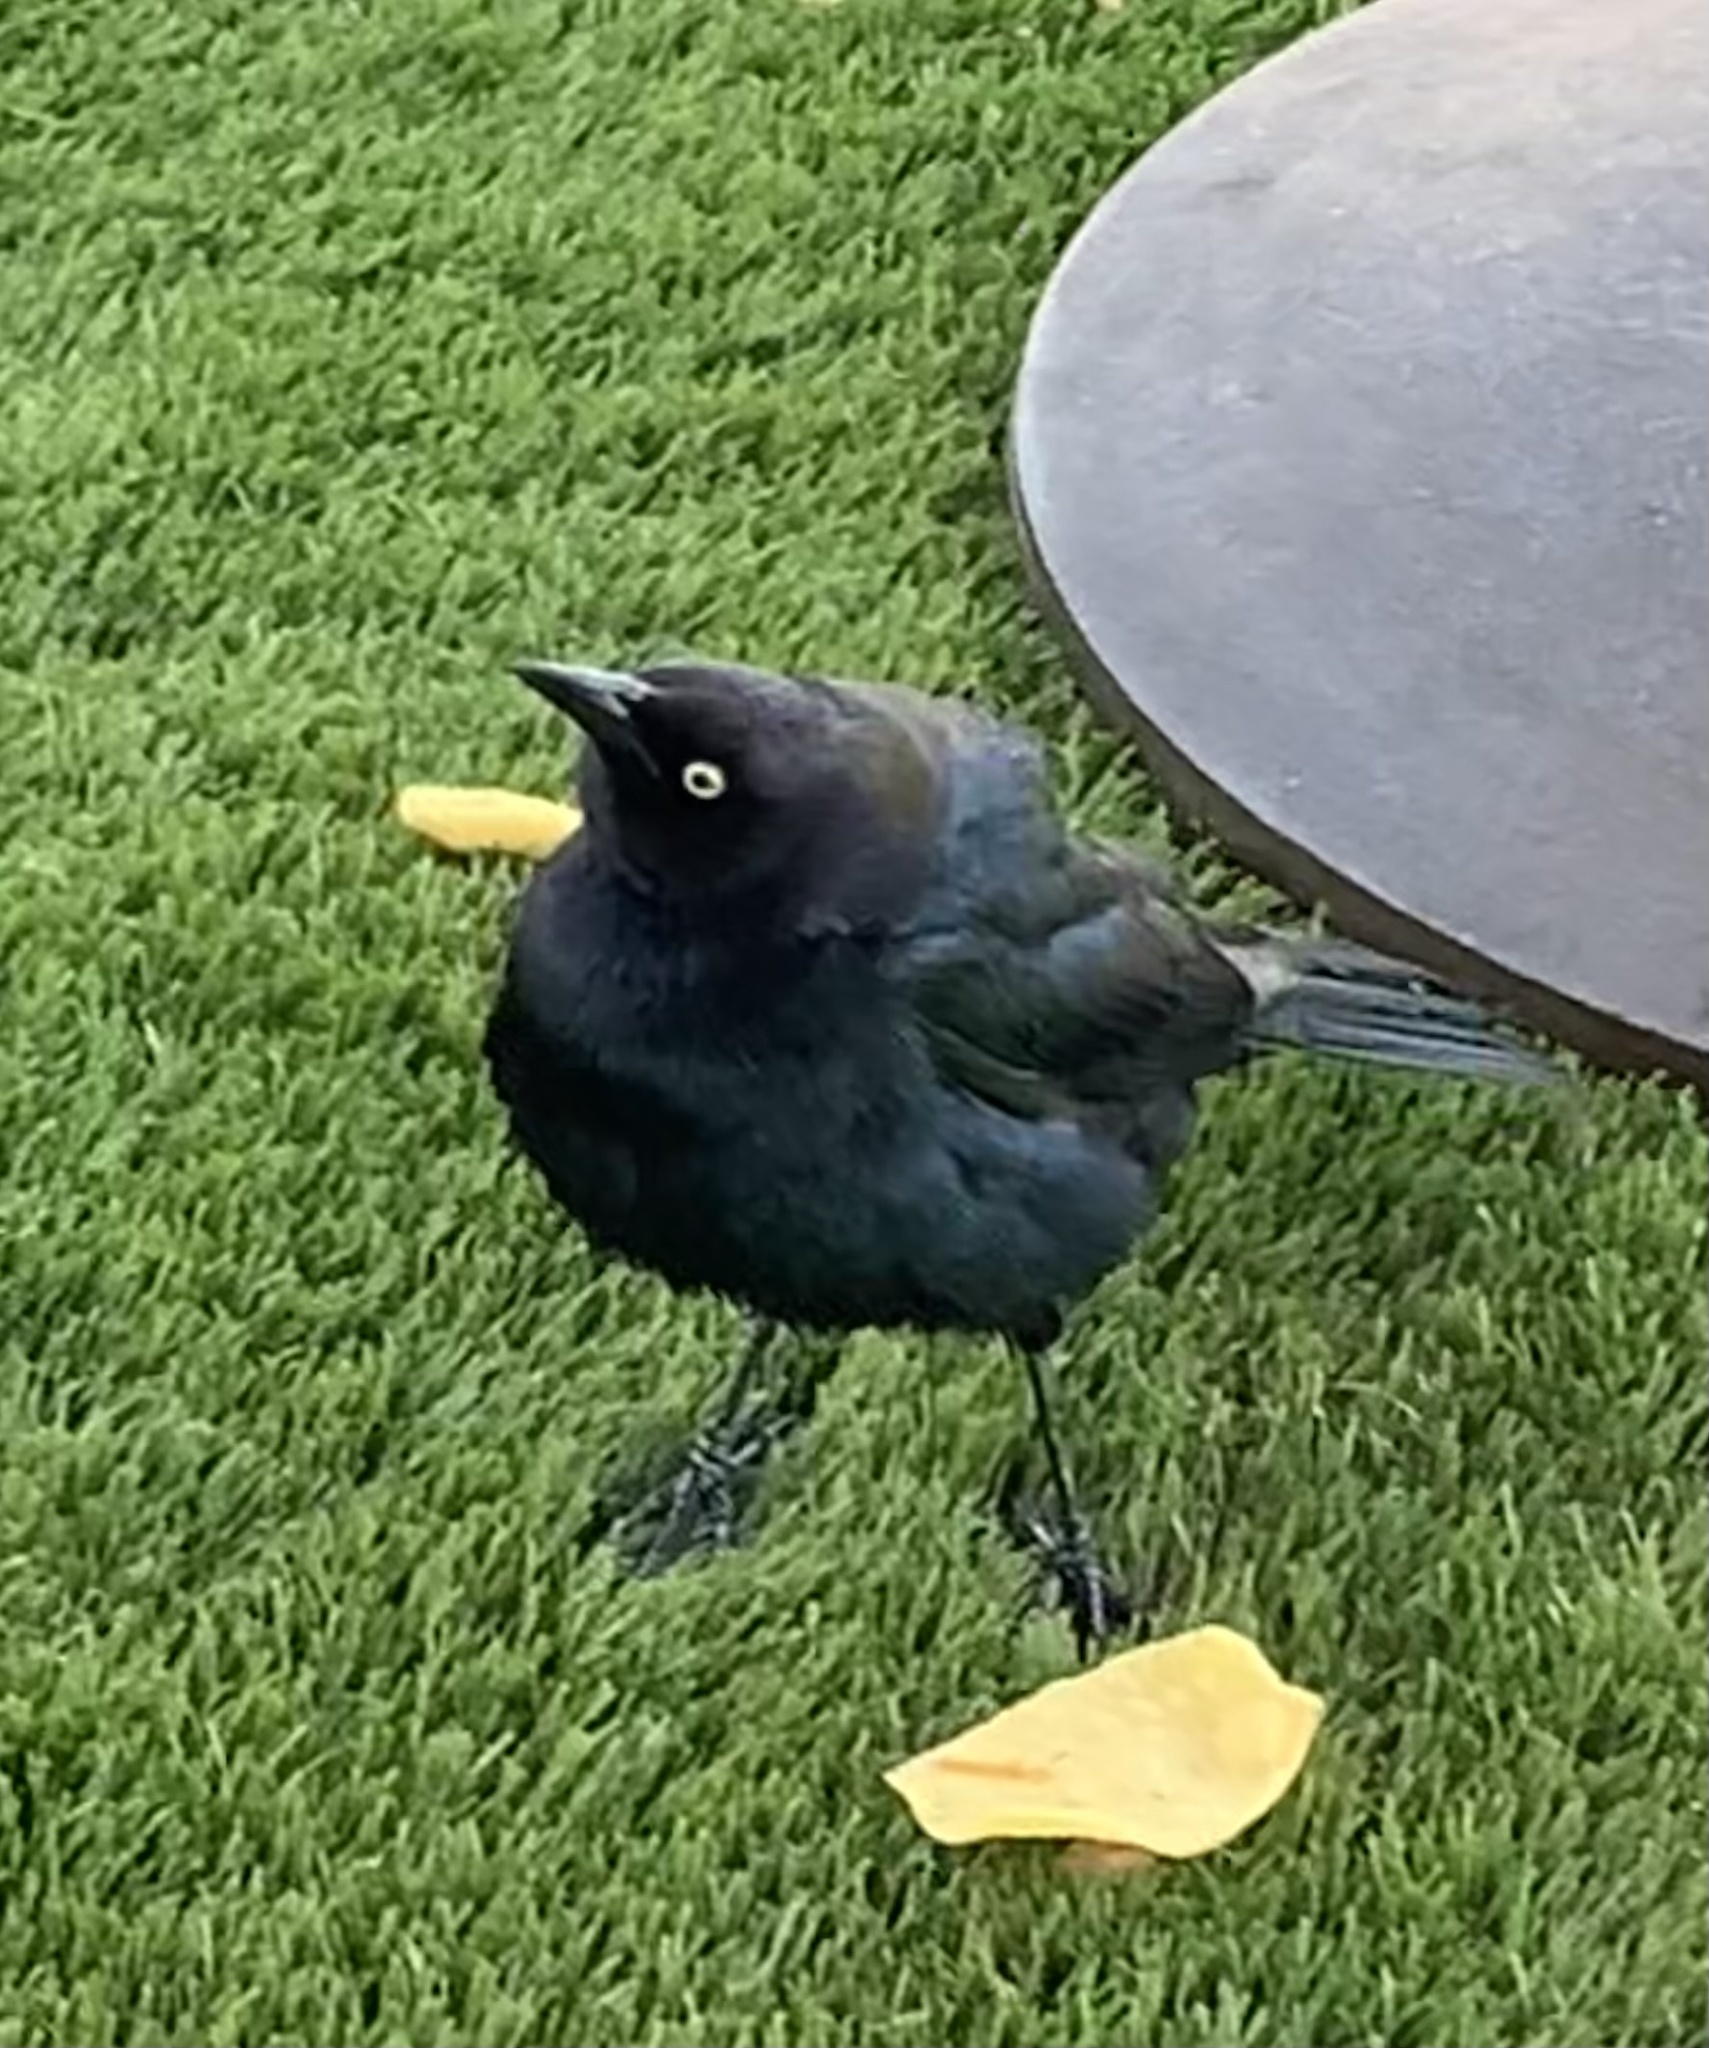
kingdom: Animalia
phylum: Chordata
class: Aves
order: Passeriformes
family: Icteridae
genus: Euphagus
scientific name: Euphagus cyanocephalus
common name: Brewer's blackbird
